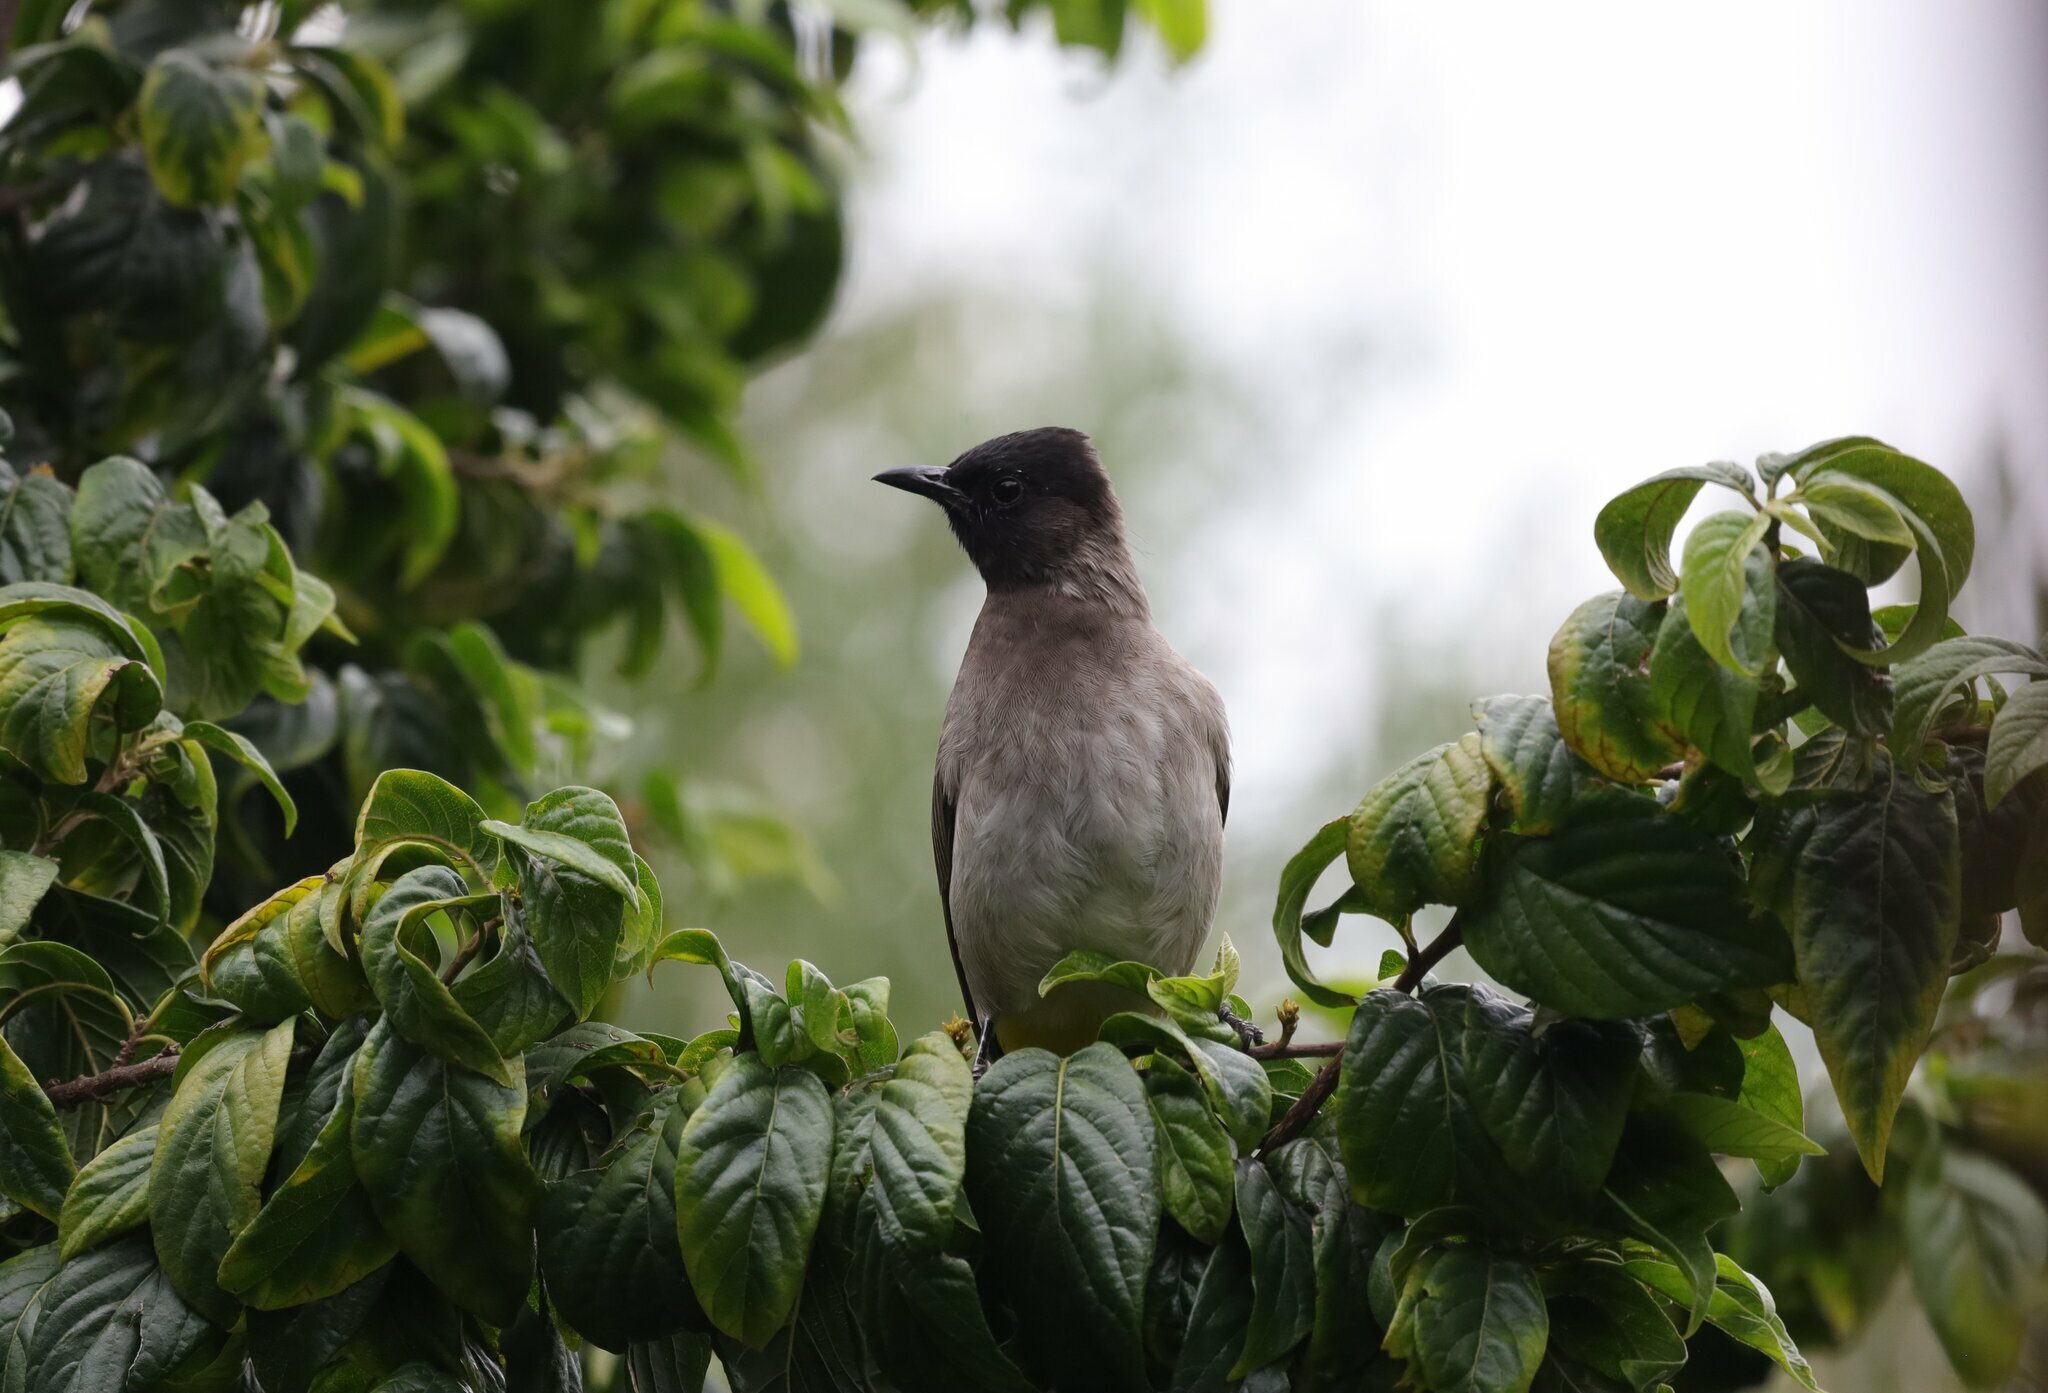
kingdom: Animalia
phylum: Chordata
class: Aves
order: Passeriformes
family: Pycnonotidae
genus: Pycnonotus
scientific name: Pycnonotus barbatus
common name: Common bulbul
